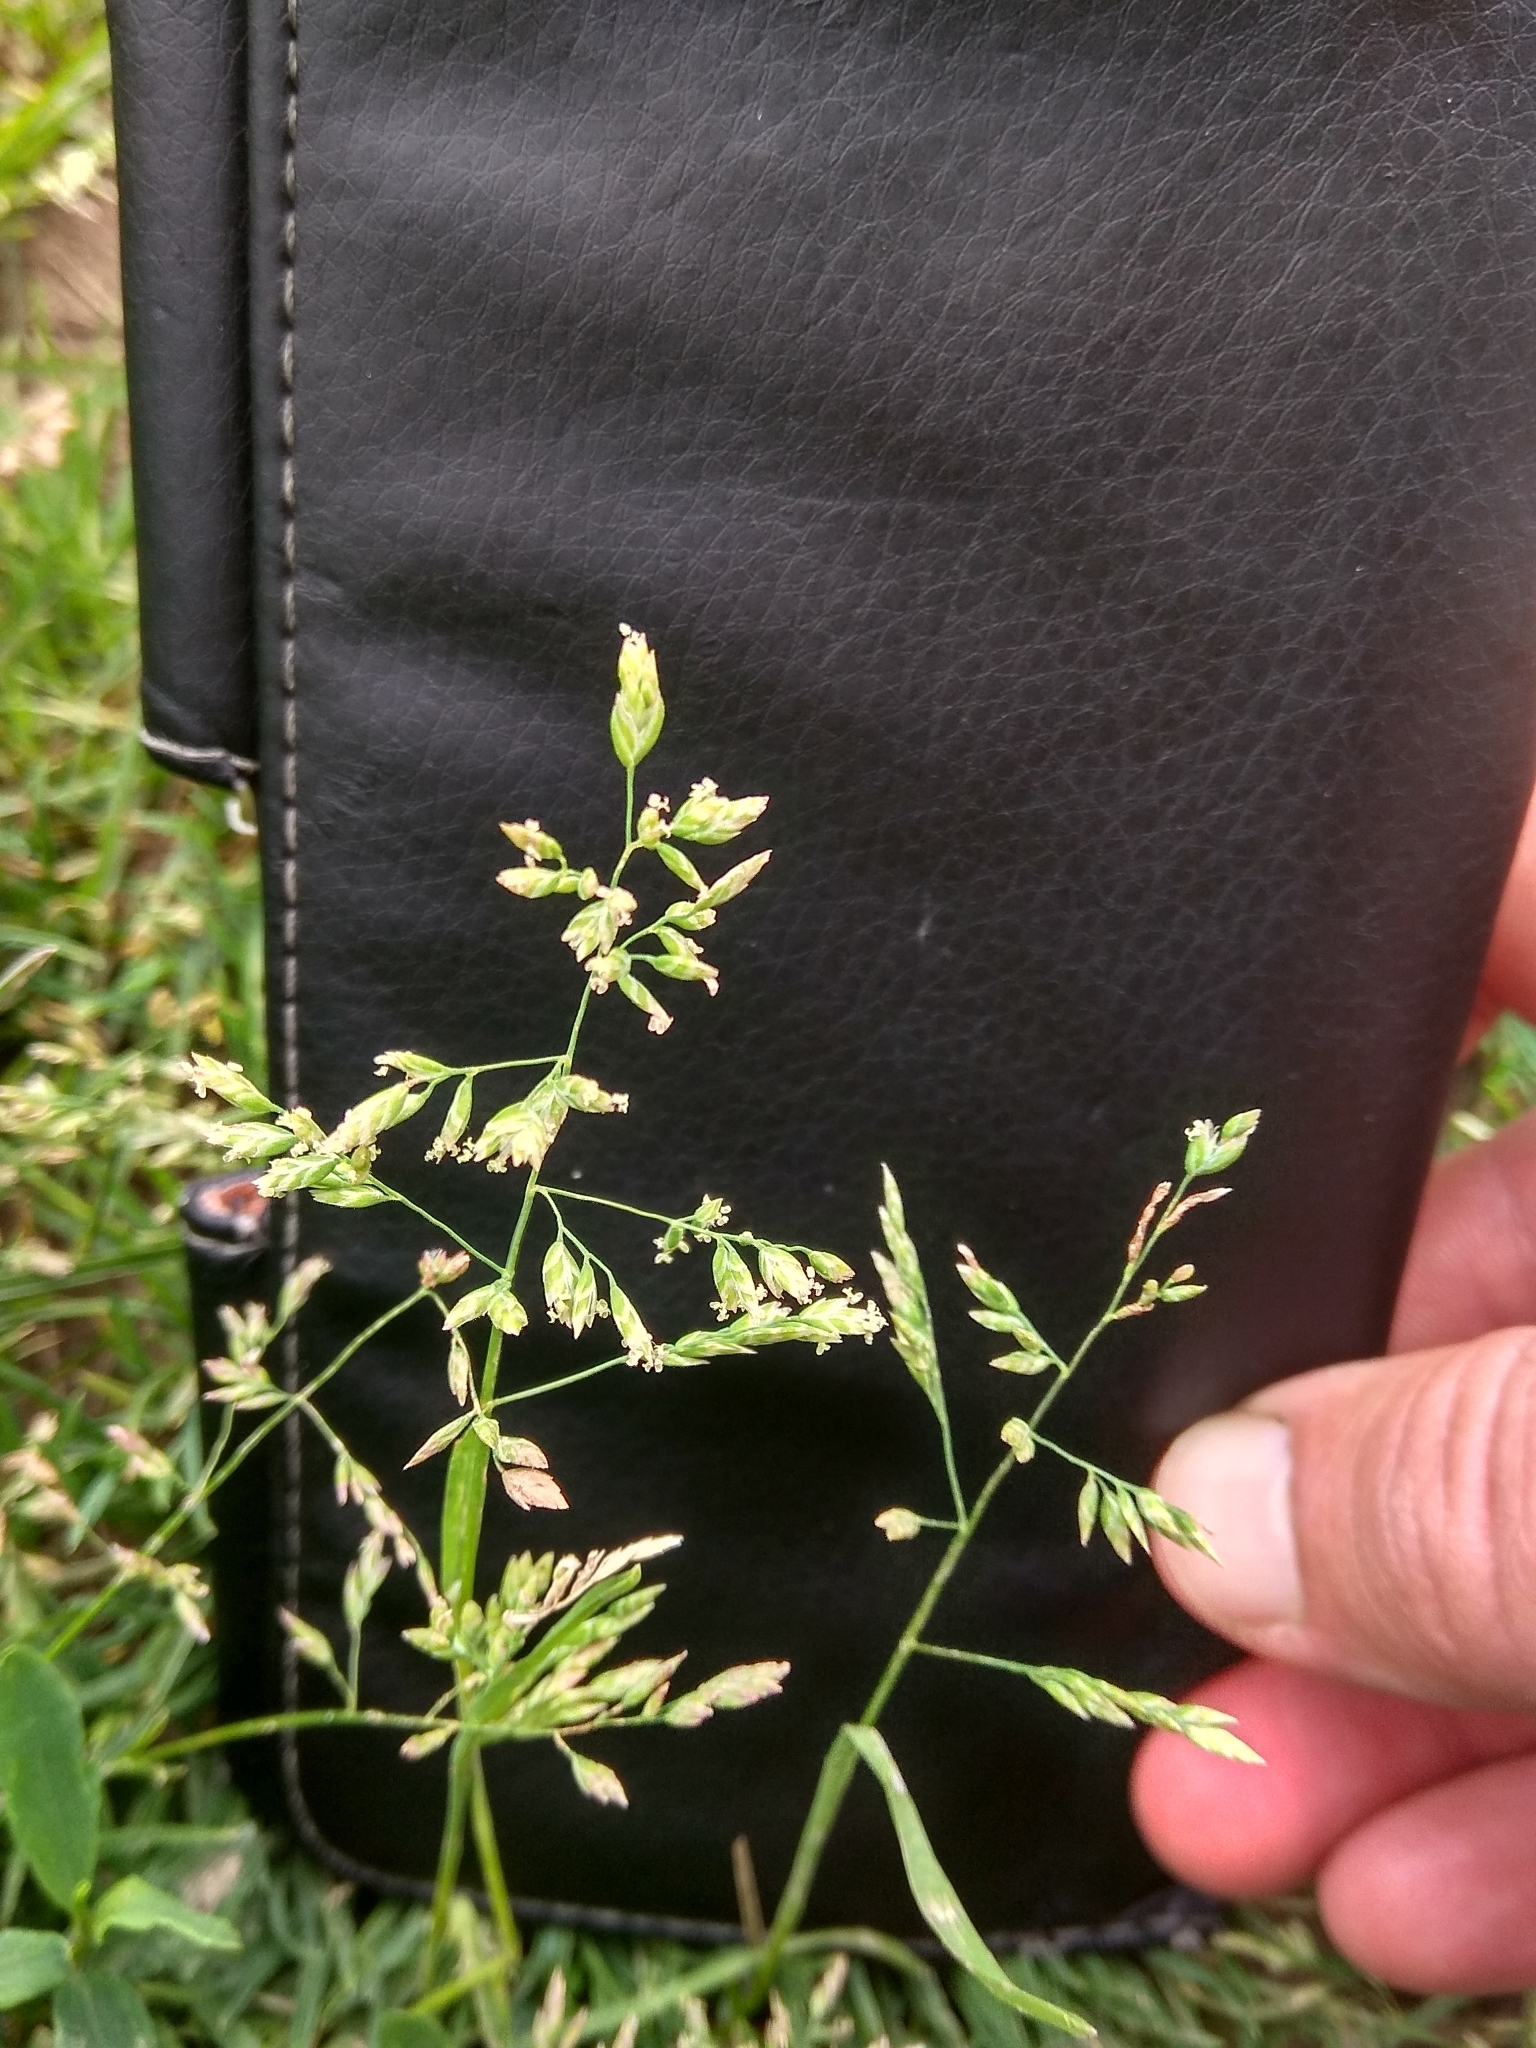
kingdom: Plantae
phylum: Tracheophyta
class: Liliopsida
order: Poales
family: Poaceae
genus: Poa
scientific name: Poa annua
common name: Annual bluegrass
